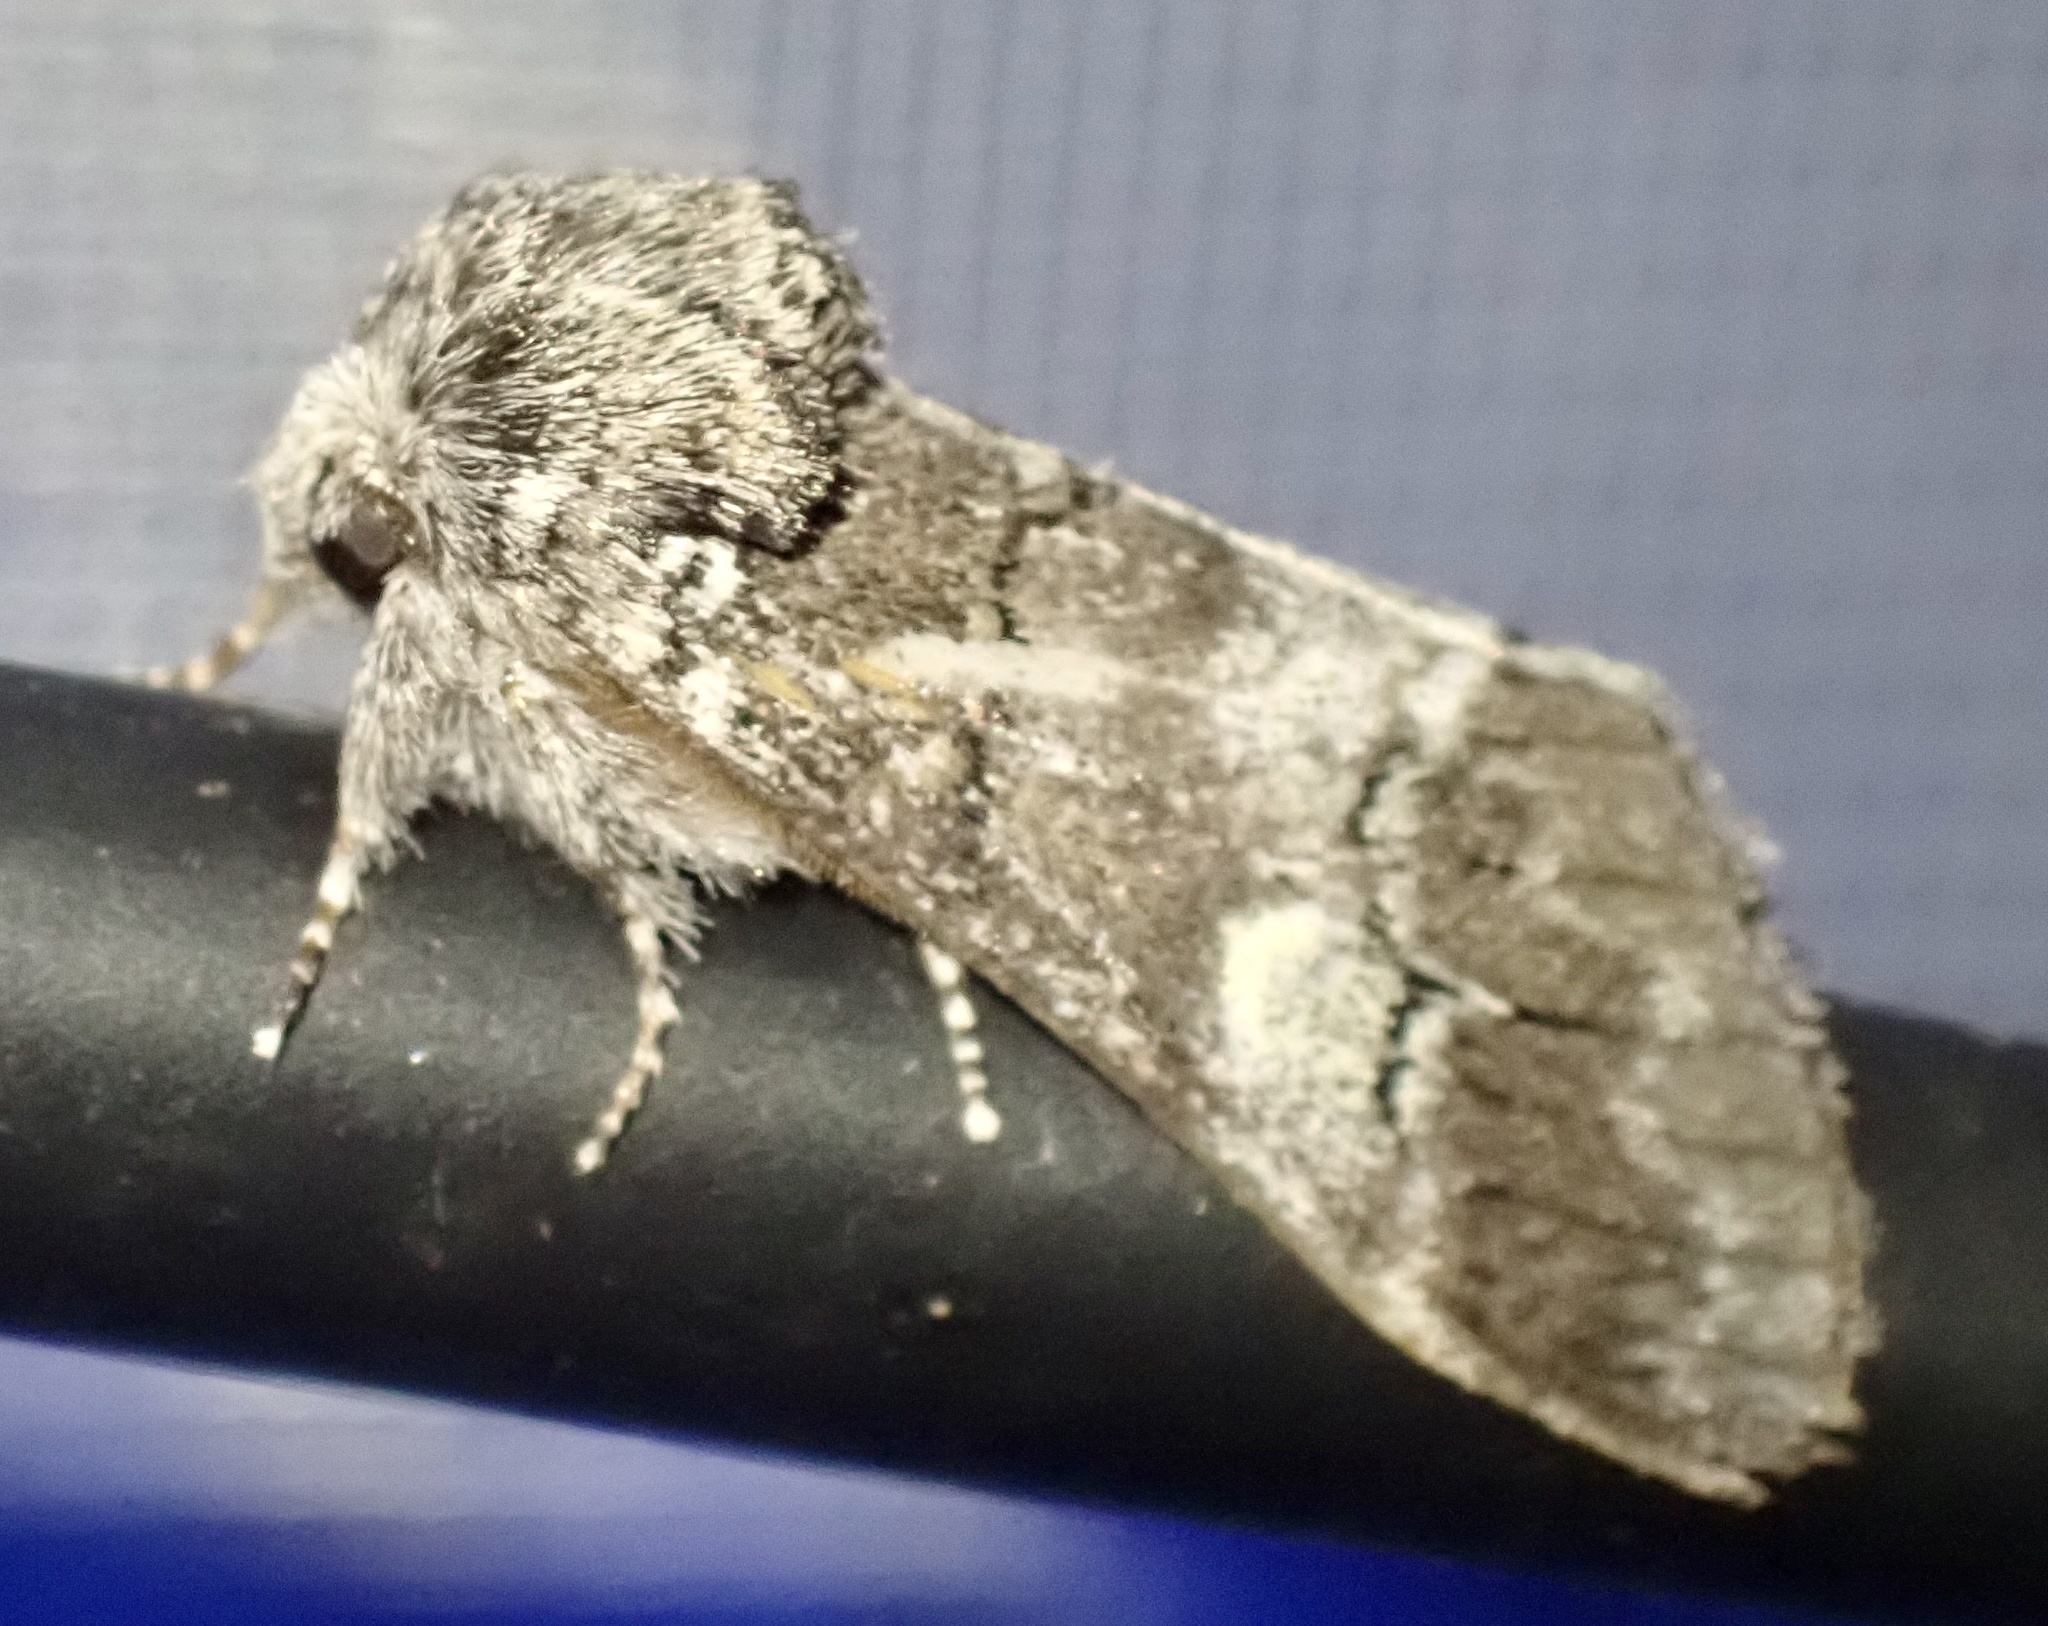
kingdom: Animalia
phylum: Arthropoda
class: Insecta
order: Lepidoptera
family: Notodontidae
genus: Drymonia
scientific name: Drymonia querna
